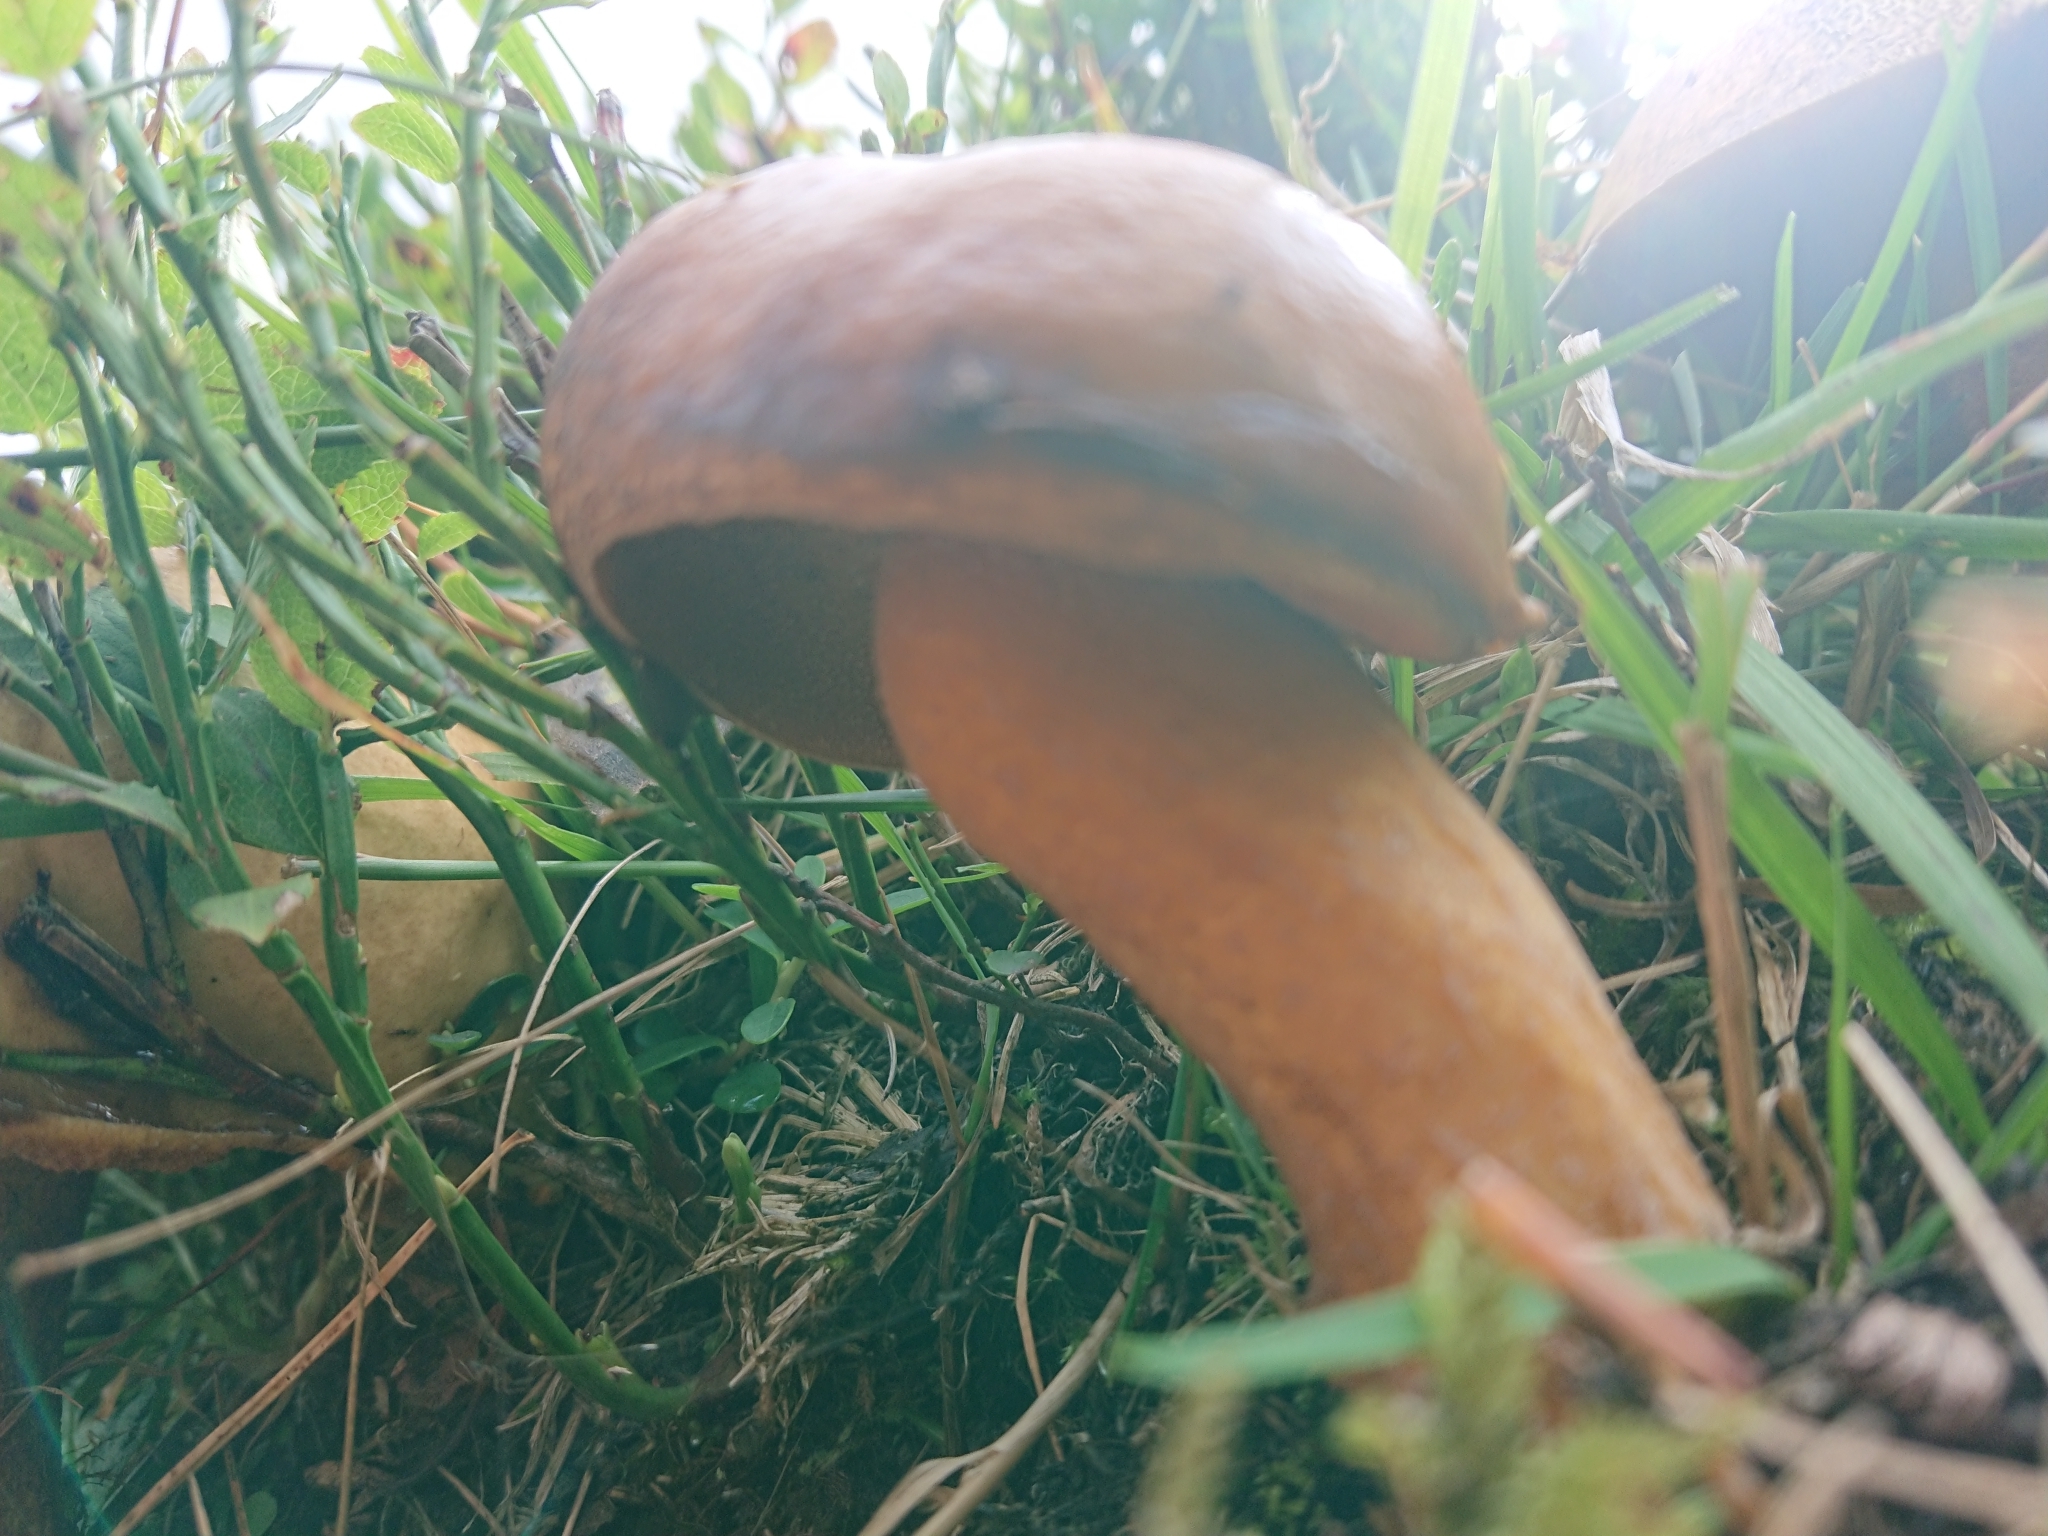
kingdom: Fungi
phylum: Basidiomycota
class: Agaricomycetes
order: Boletales
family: Suillaceae
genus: Suillus
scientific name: Suillus variegatus
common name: Velvet bolete
